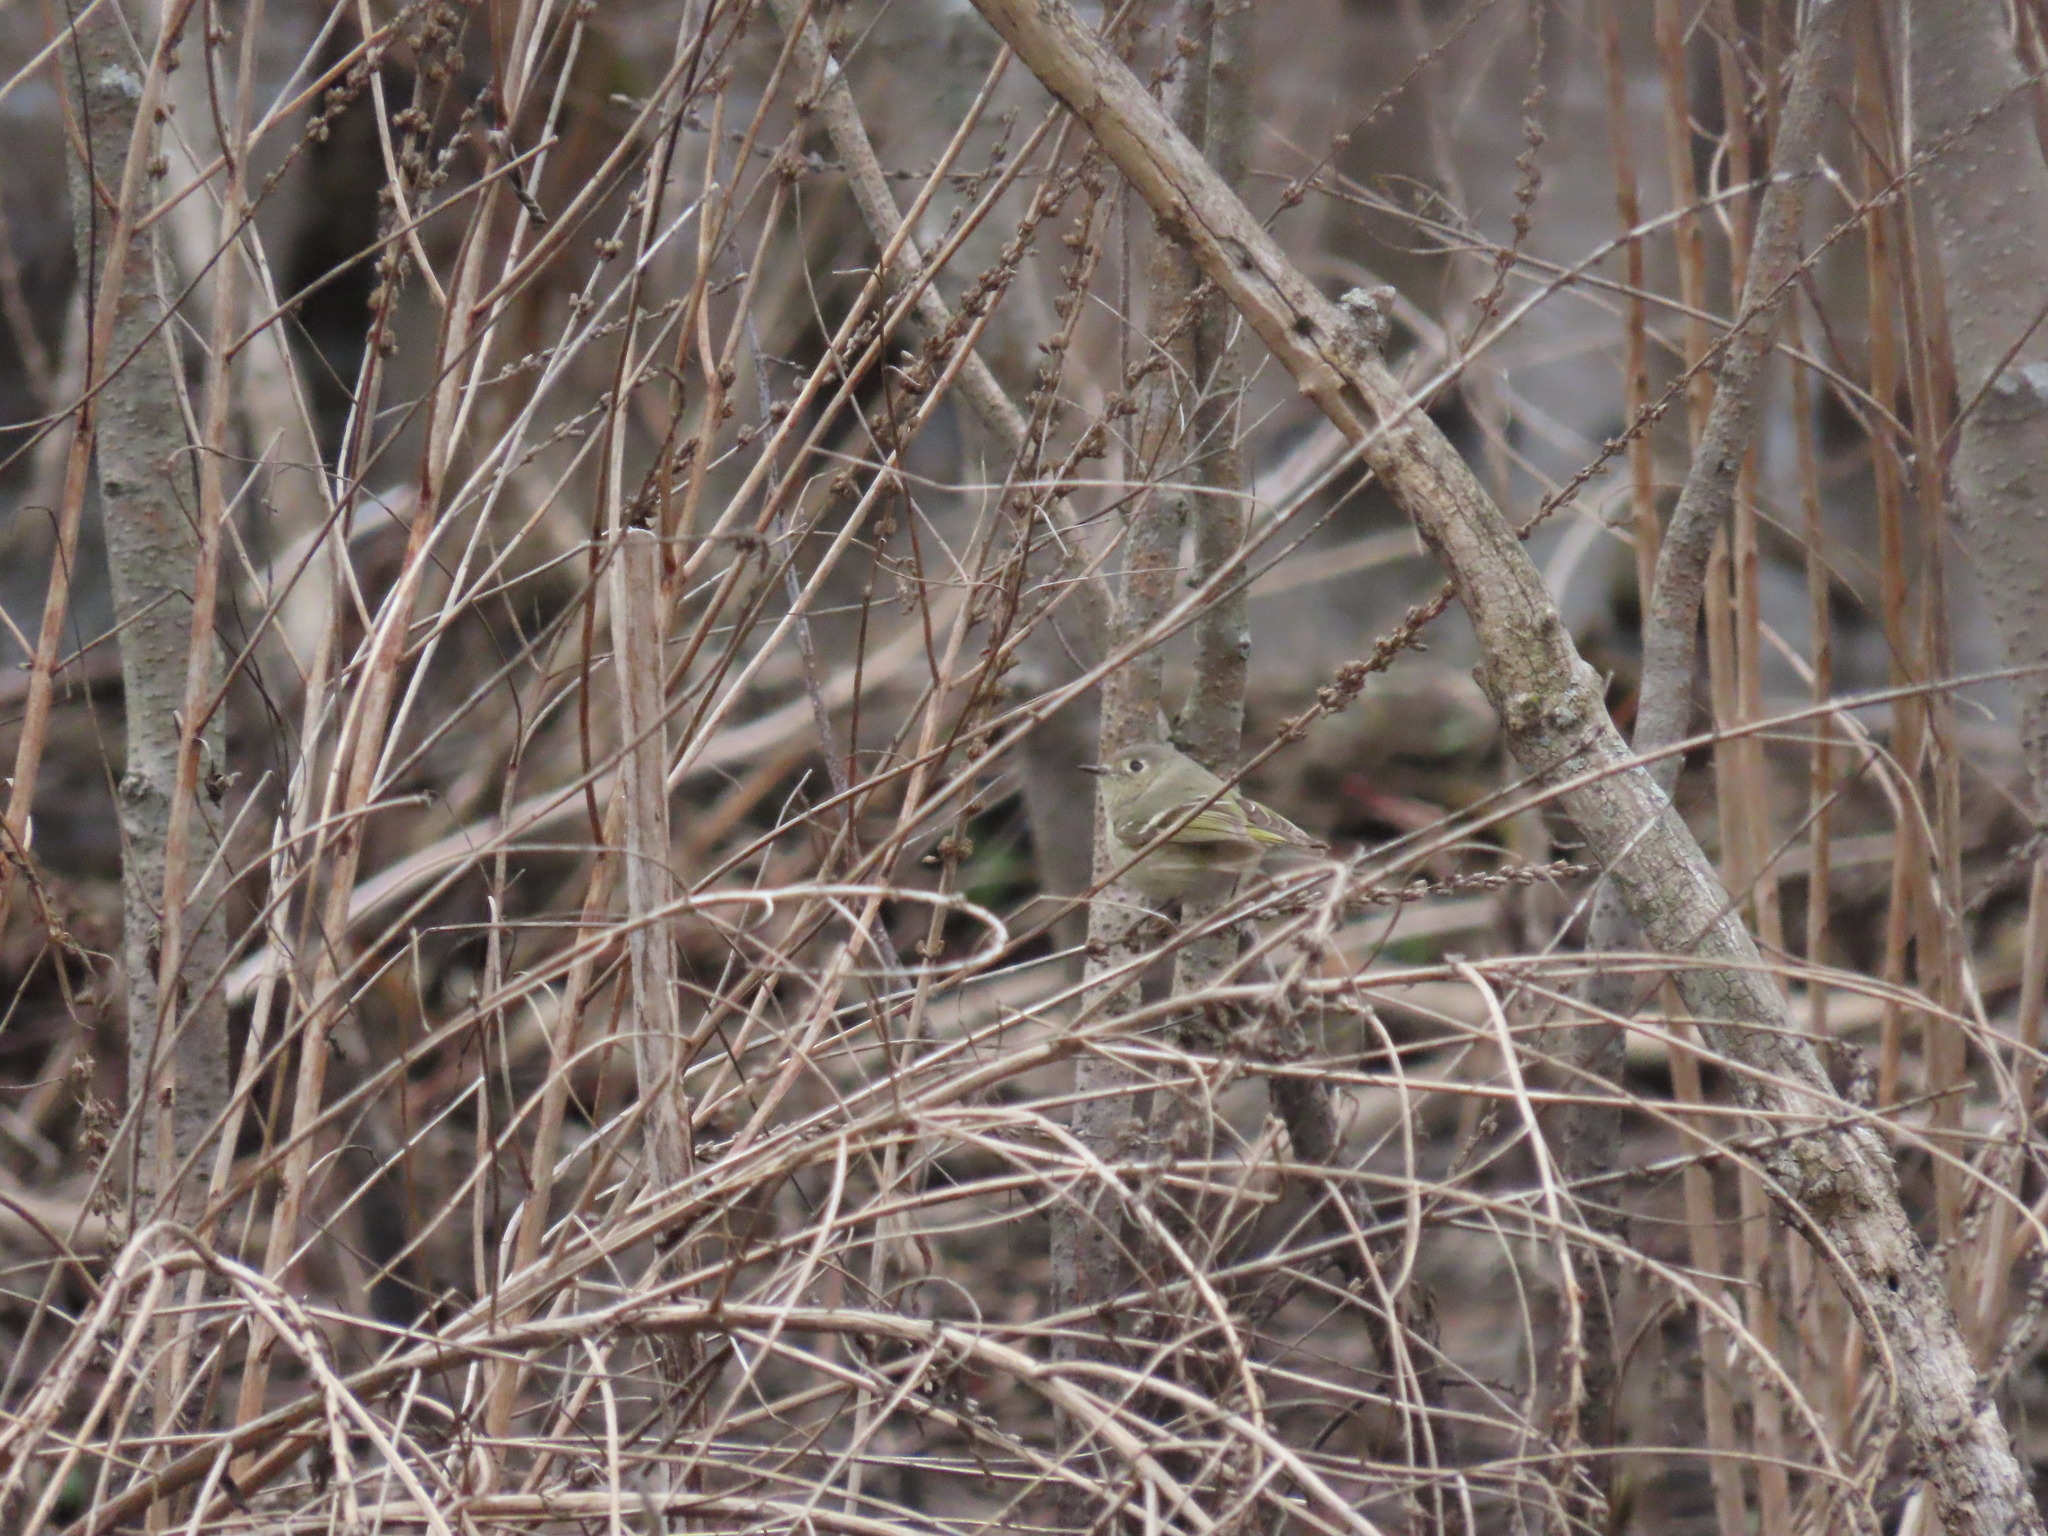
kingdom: Animalia
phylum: Chordata
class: Aves
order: Passeriformes
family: Regulidae
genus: Regulus
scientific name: Regulus calendula
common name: Ruby-crowned kinglet
